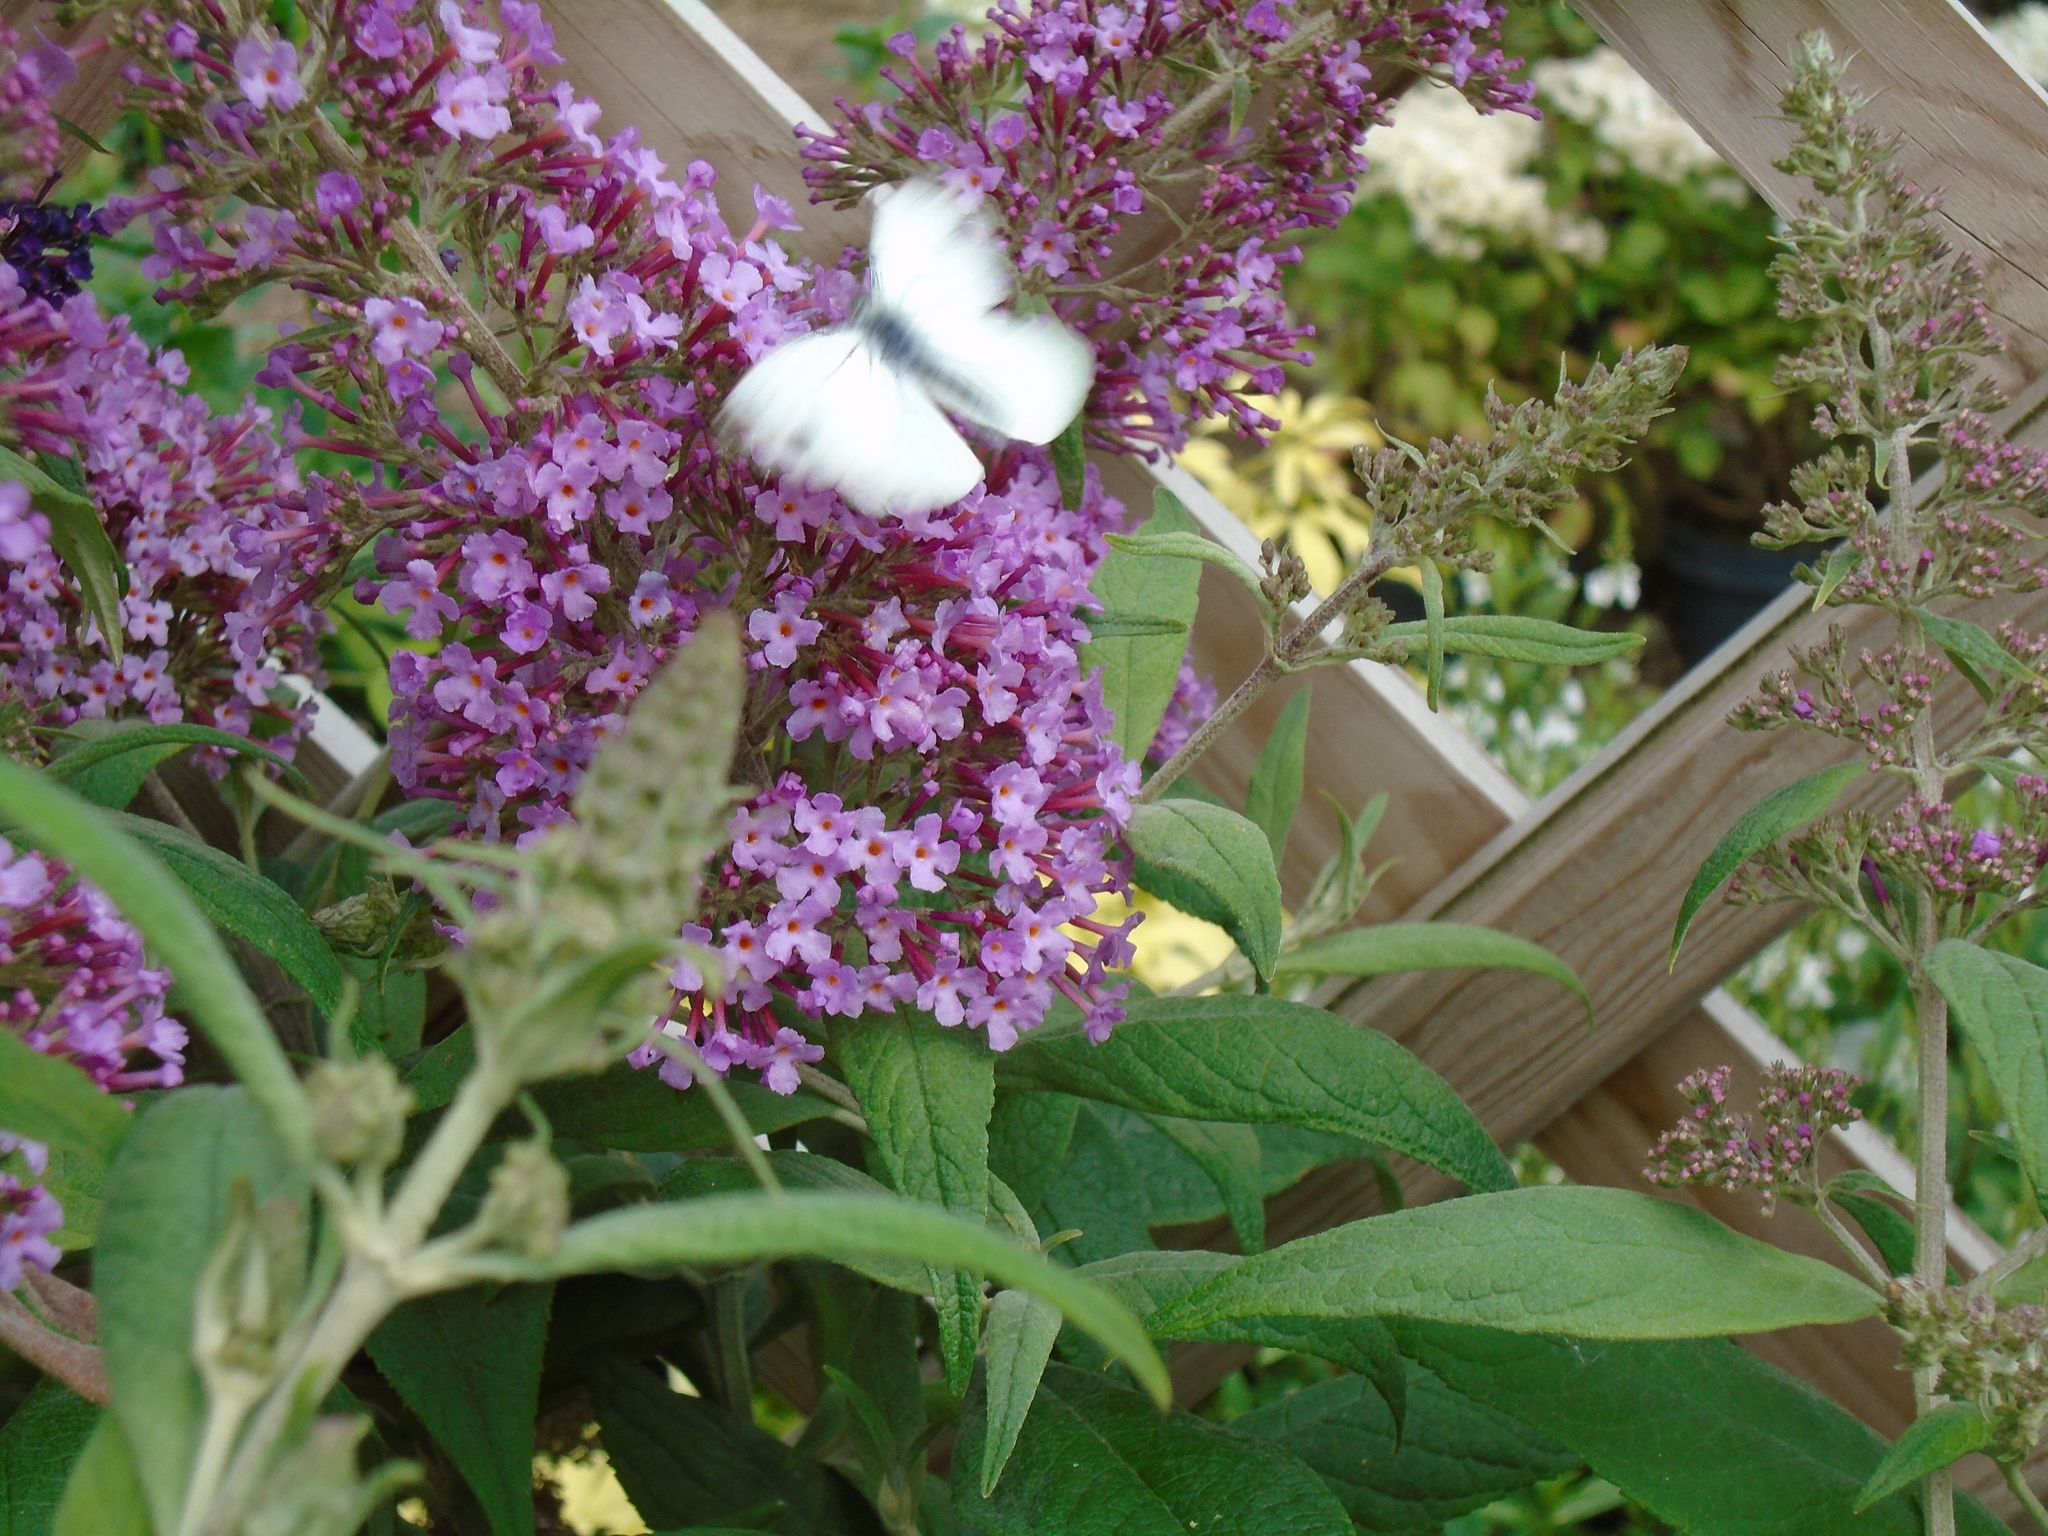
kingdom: Animalia
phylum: Arthropoda
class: Insecta
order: Lepidoptera
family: Pieridae
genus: Pieris
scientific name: Pieris napi
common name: Green-veined white
